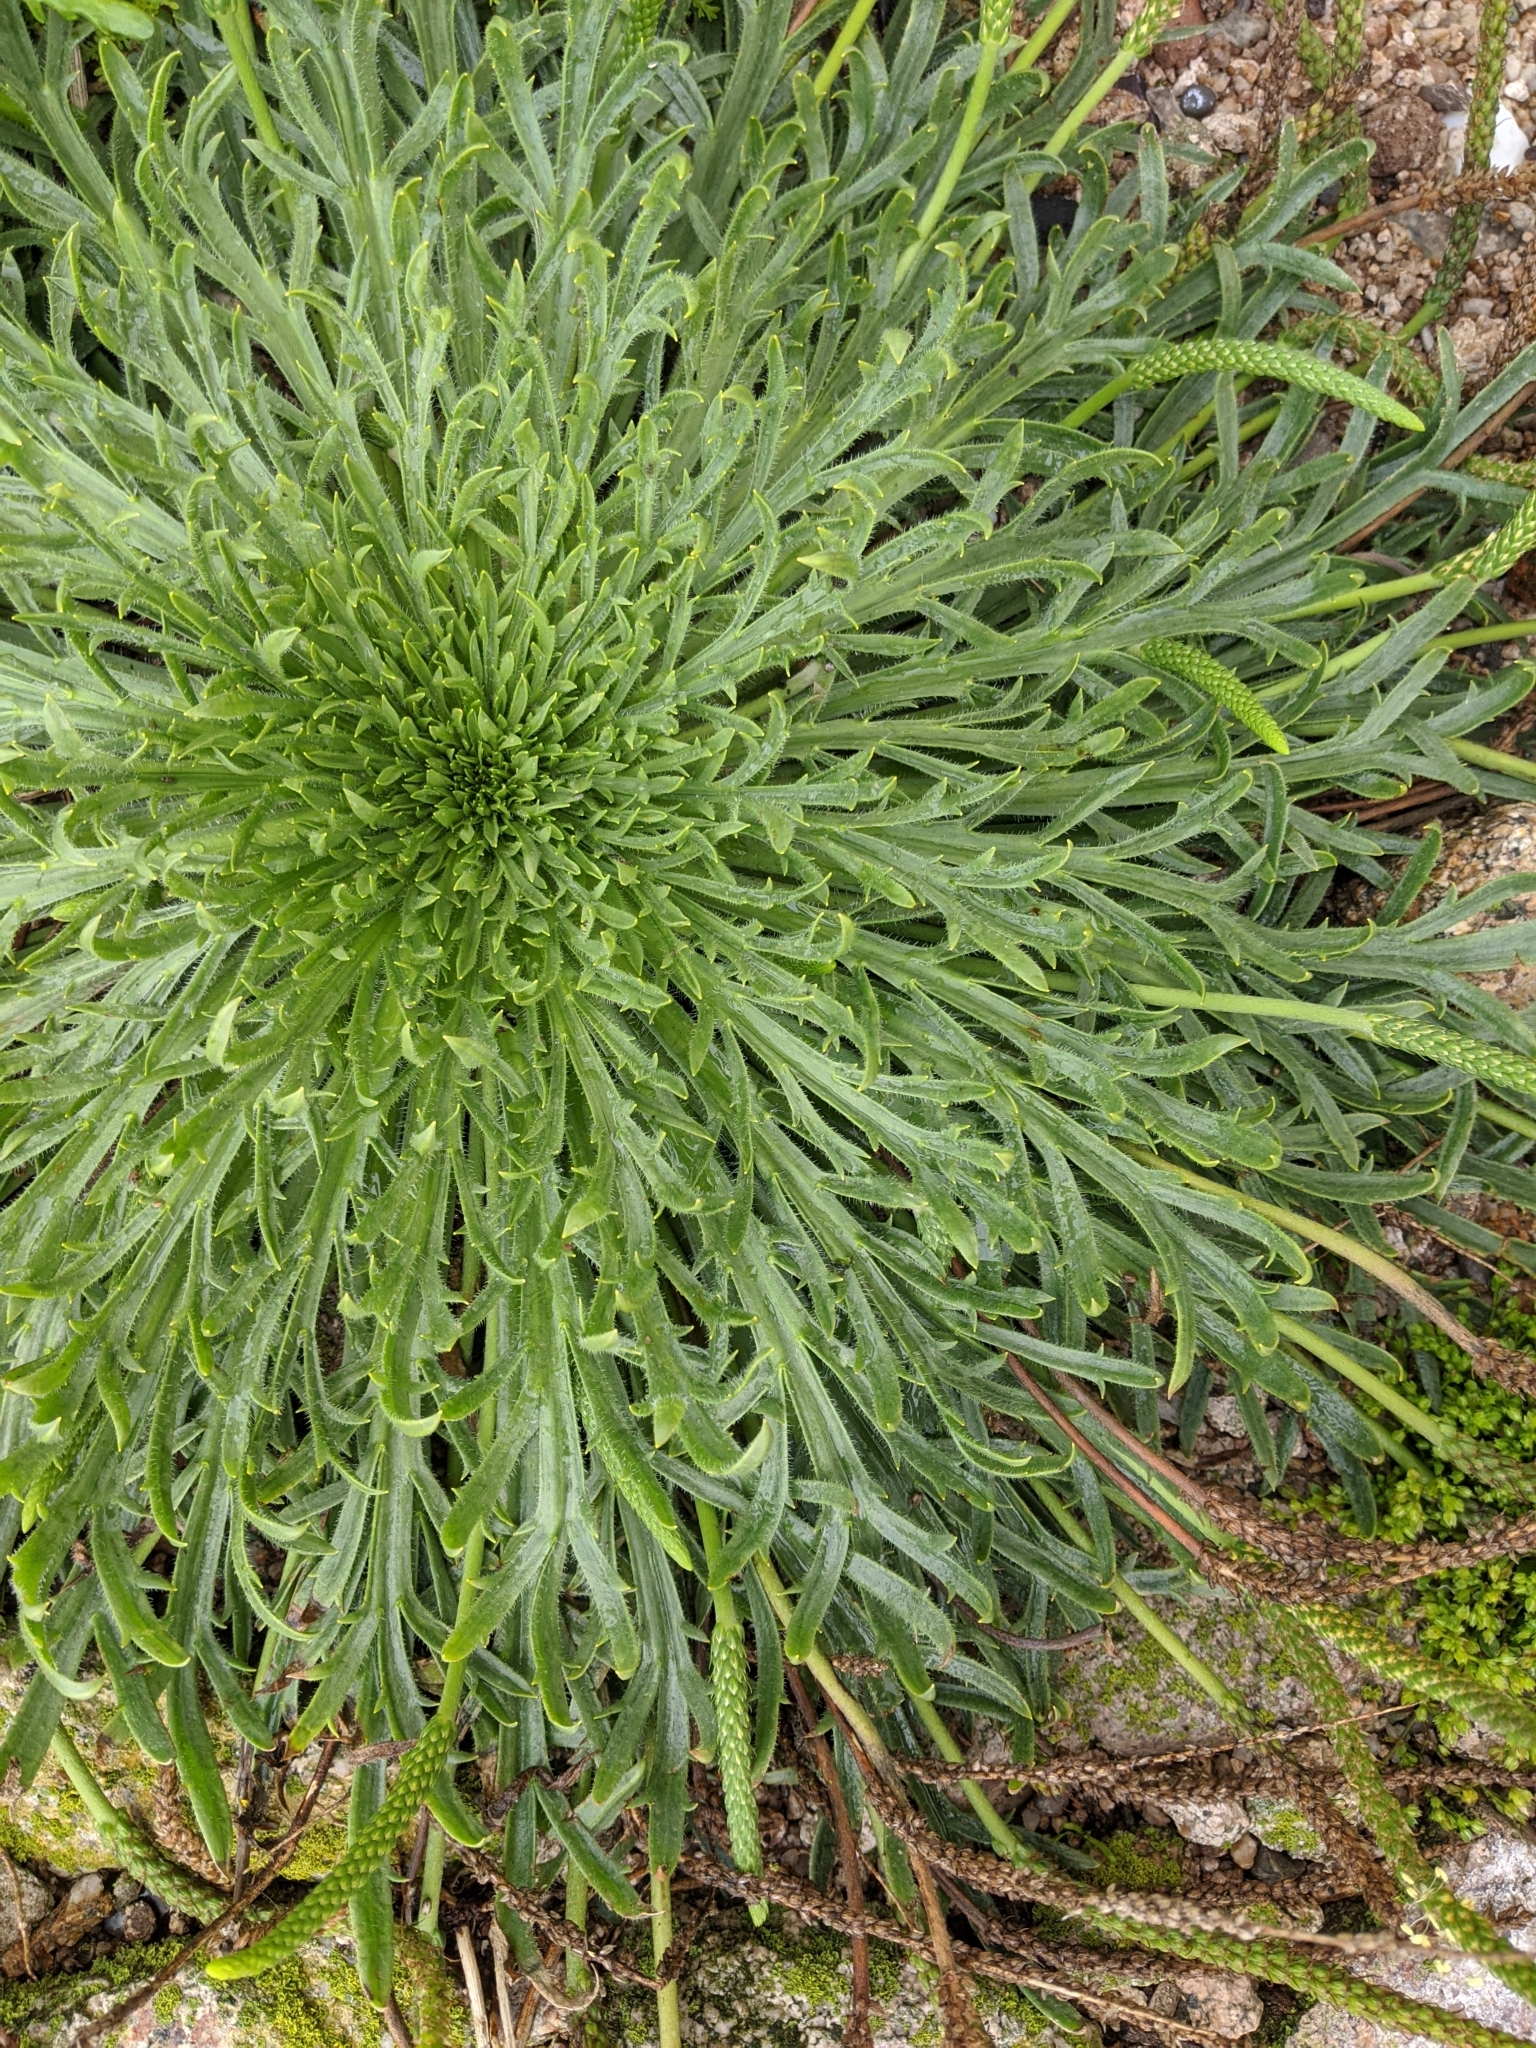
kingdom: Plantae
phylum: Tracheophyta
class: Magnoliopsida
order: Lamiales
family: Plantaginaceae
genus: Plantago
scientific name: Plantago coronopus
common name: Buck's-horn plantain
